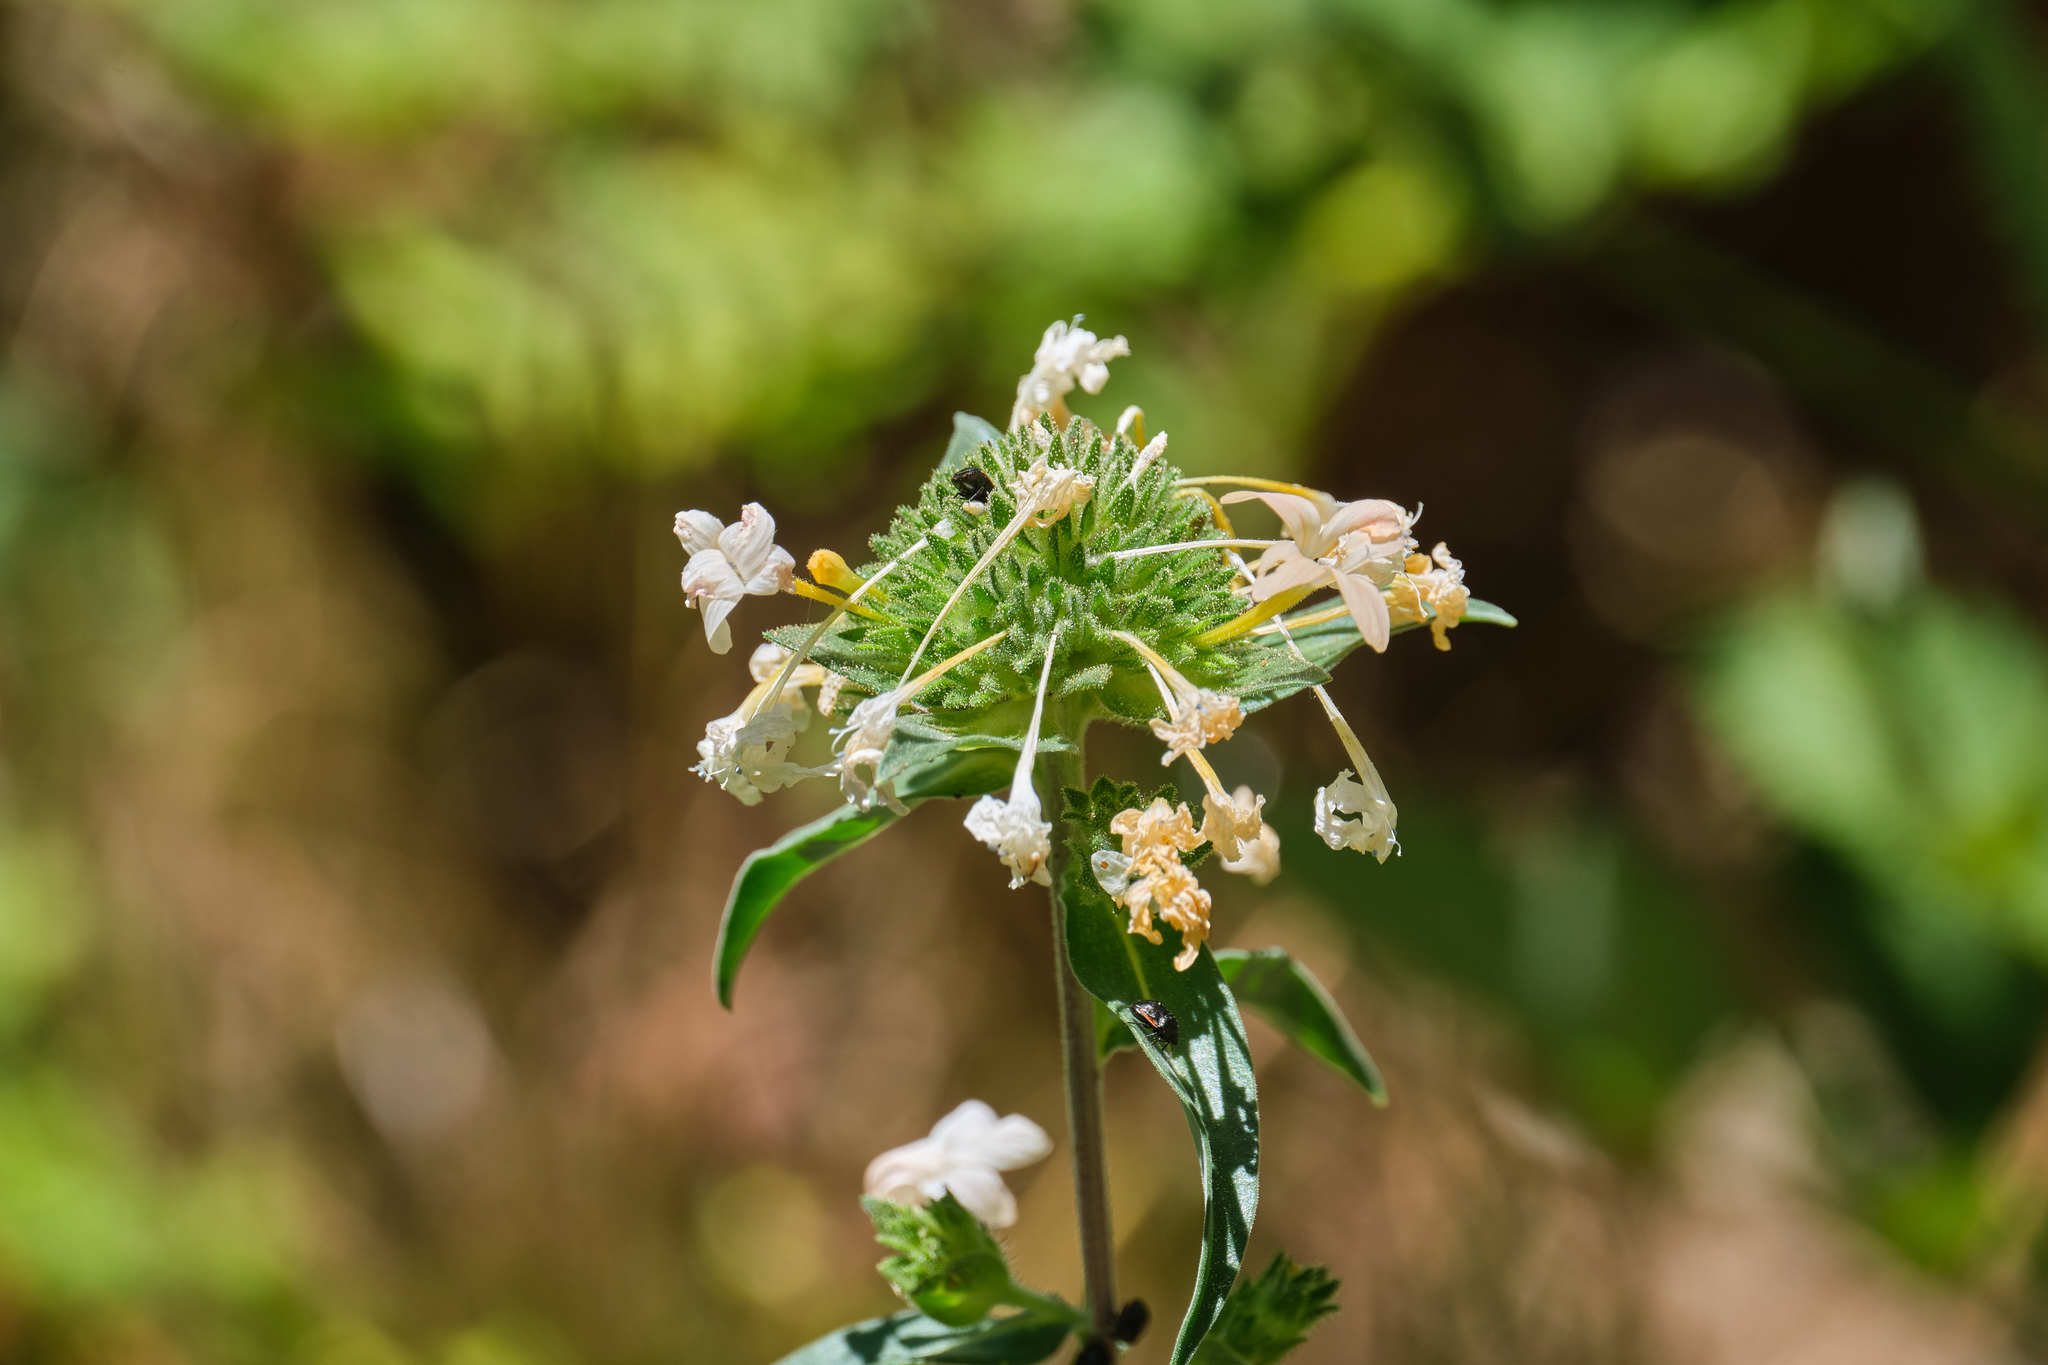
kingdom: Plantae
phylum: Tracheophyta
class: Magnoliopsida
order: Ericales
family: Polemoniaceae
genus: Collomia
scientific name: Collomia grandiflora
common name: California strawflower
